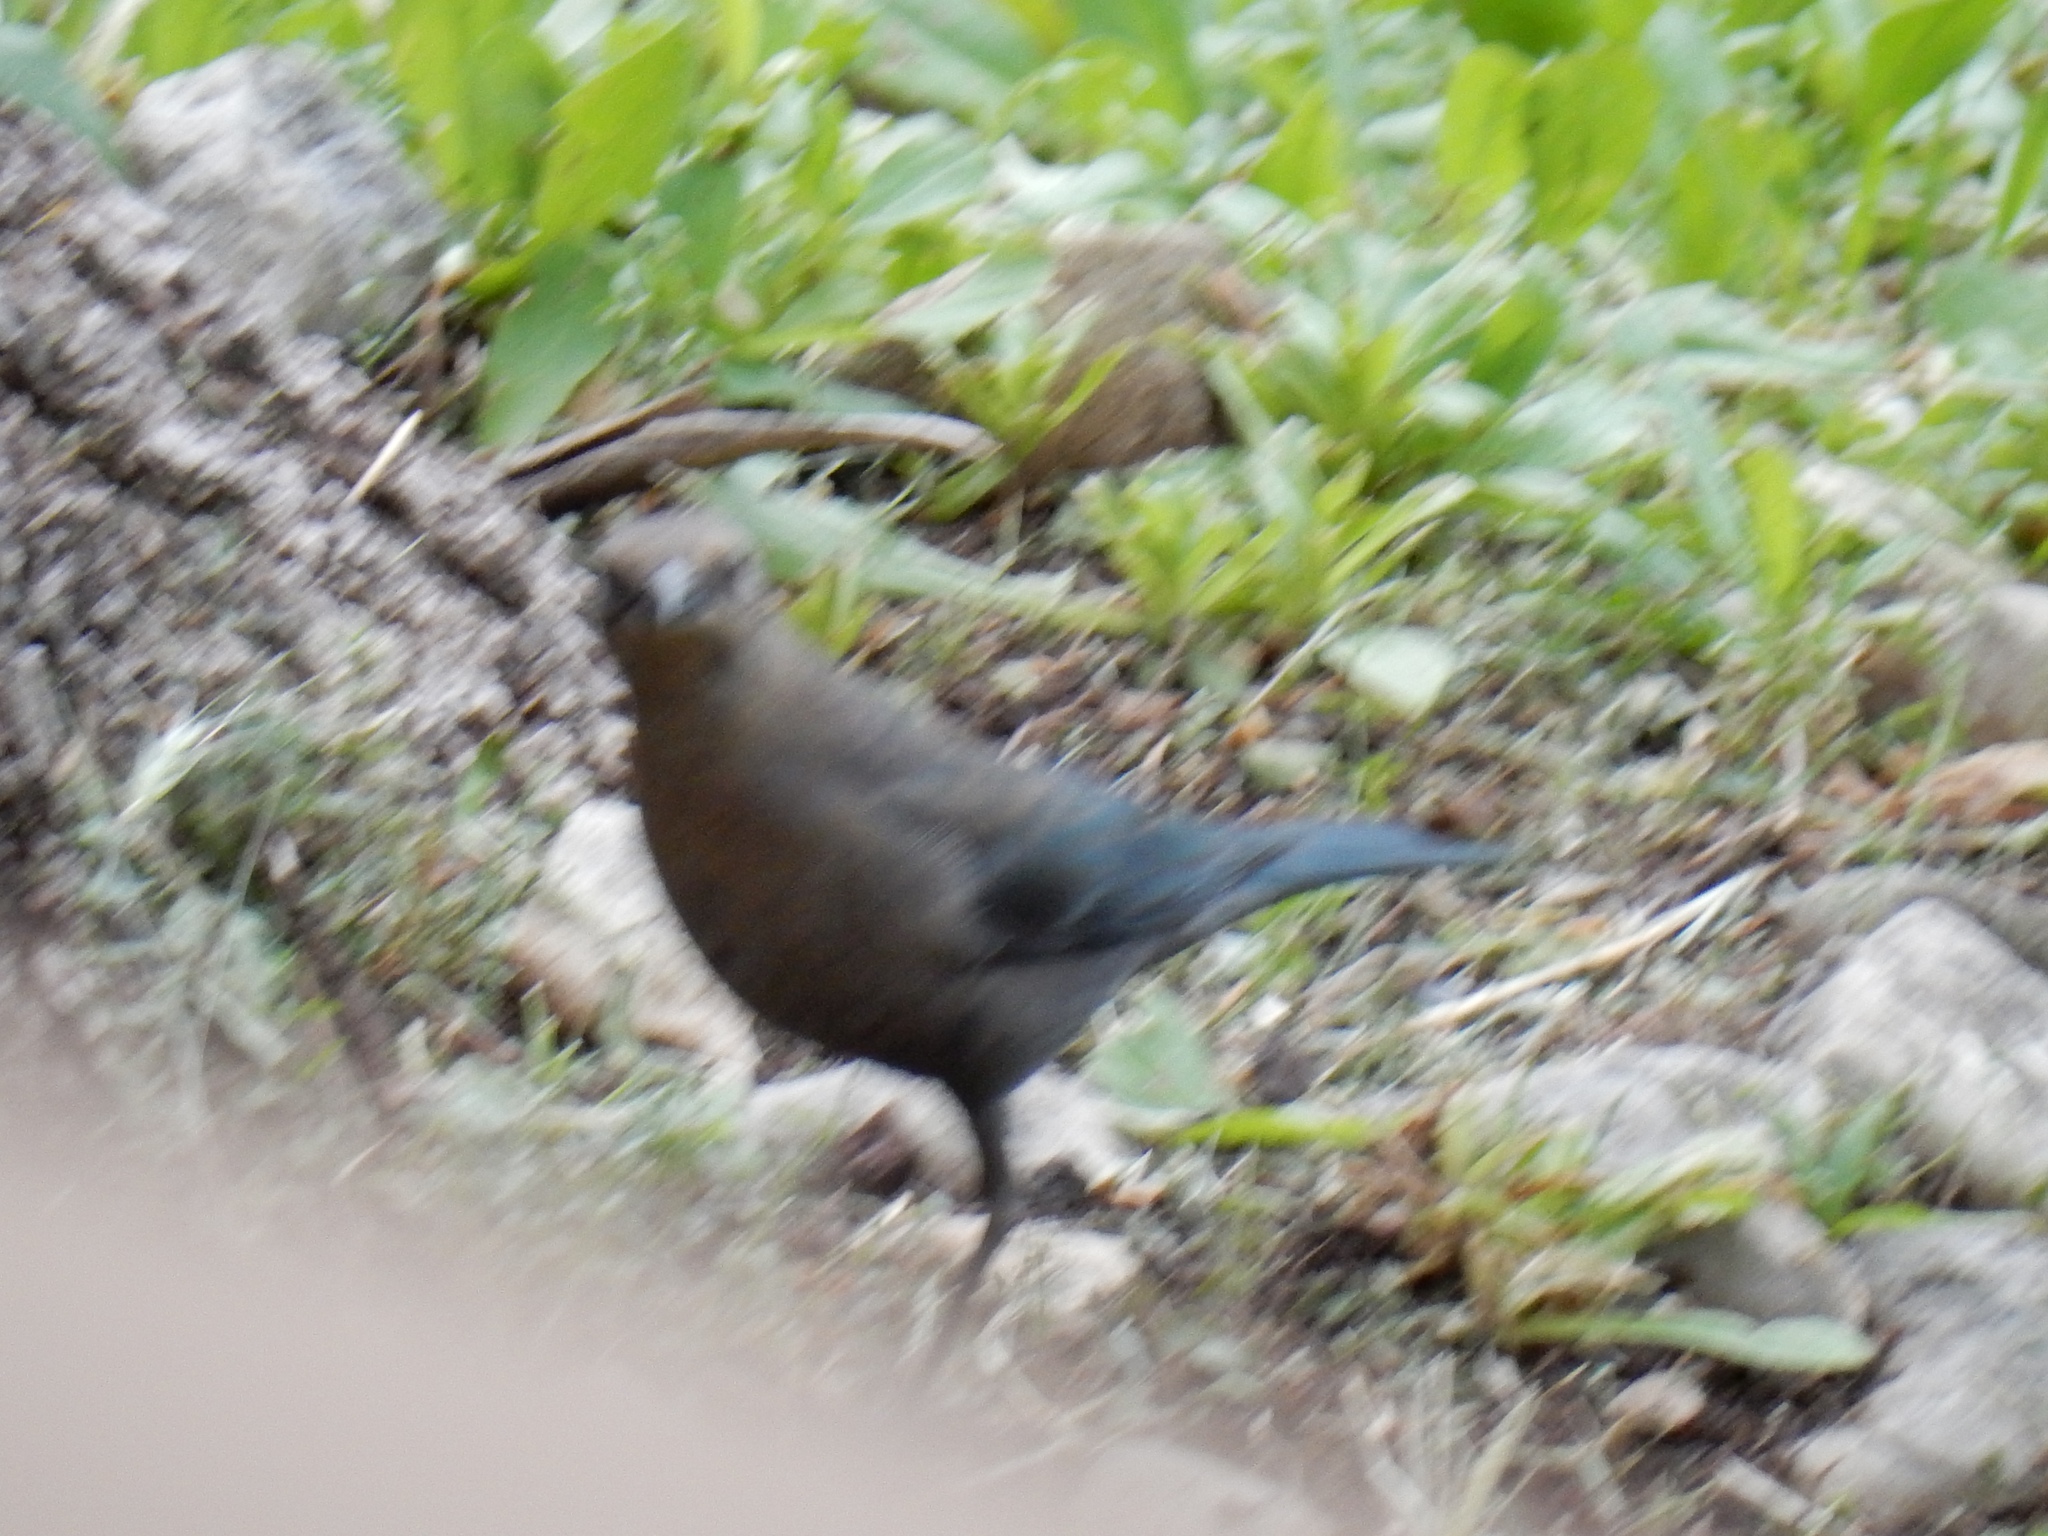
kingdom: Animalia
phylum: Chordata
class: Aves
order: Passeriformes
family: Icteridae
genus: Euphagus
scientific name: Euphagus cyanocephalus
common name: Brewer's blackbird
